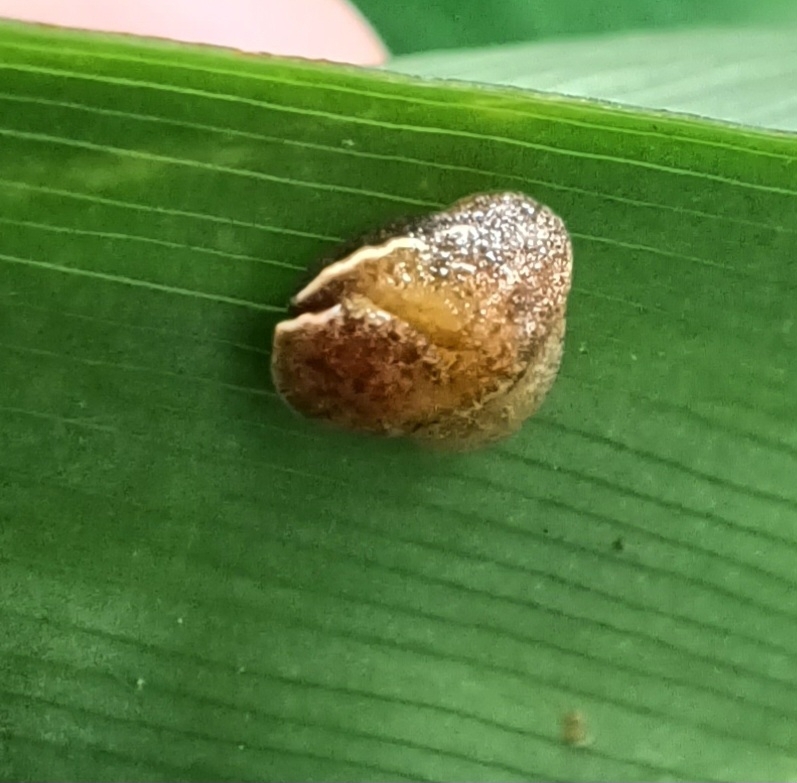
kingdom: Animalia
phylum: Mollusca
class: Gastropoda
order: Stylommatophora
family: Helicarionidae
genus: Ubiquitarion
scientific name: Ubiquitarion iridis
